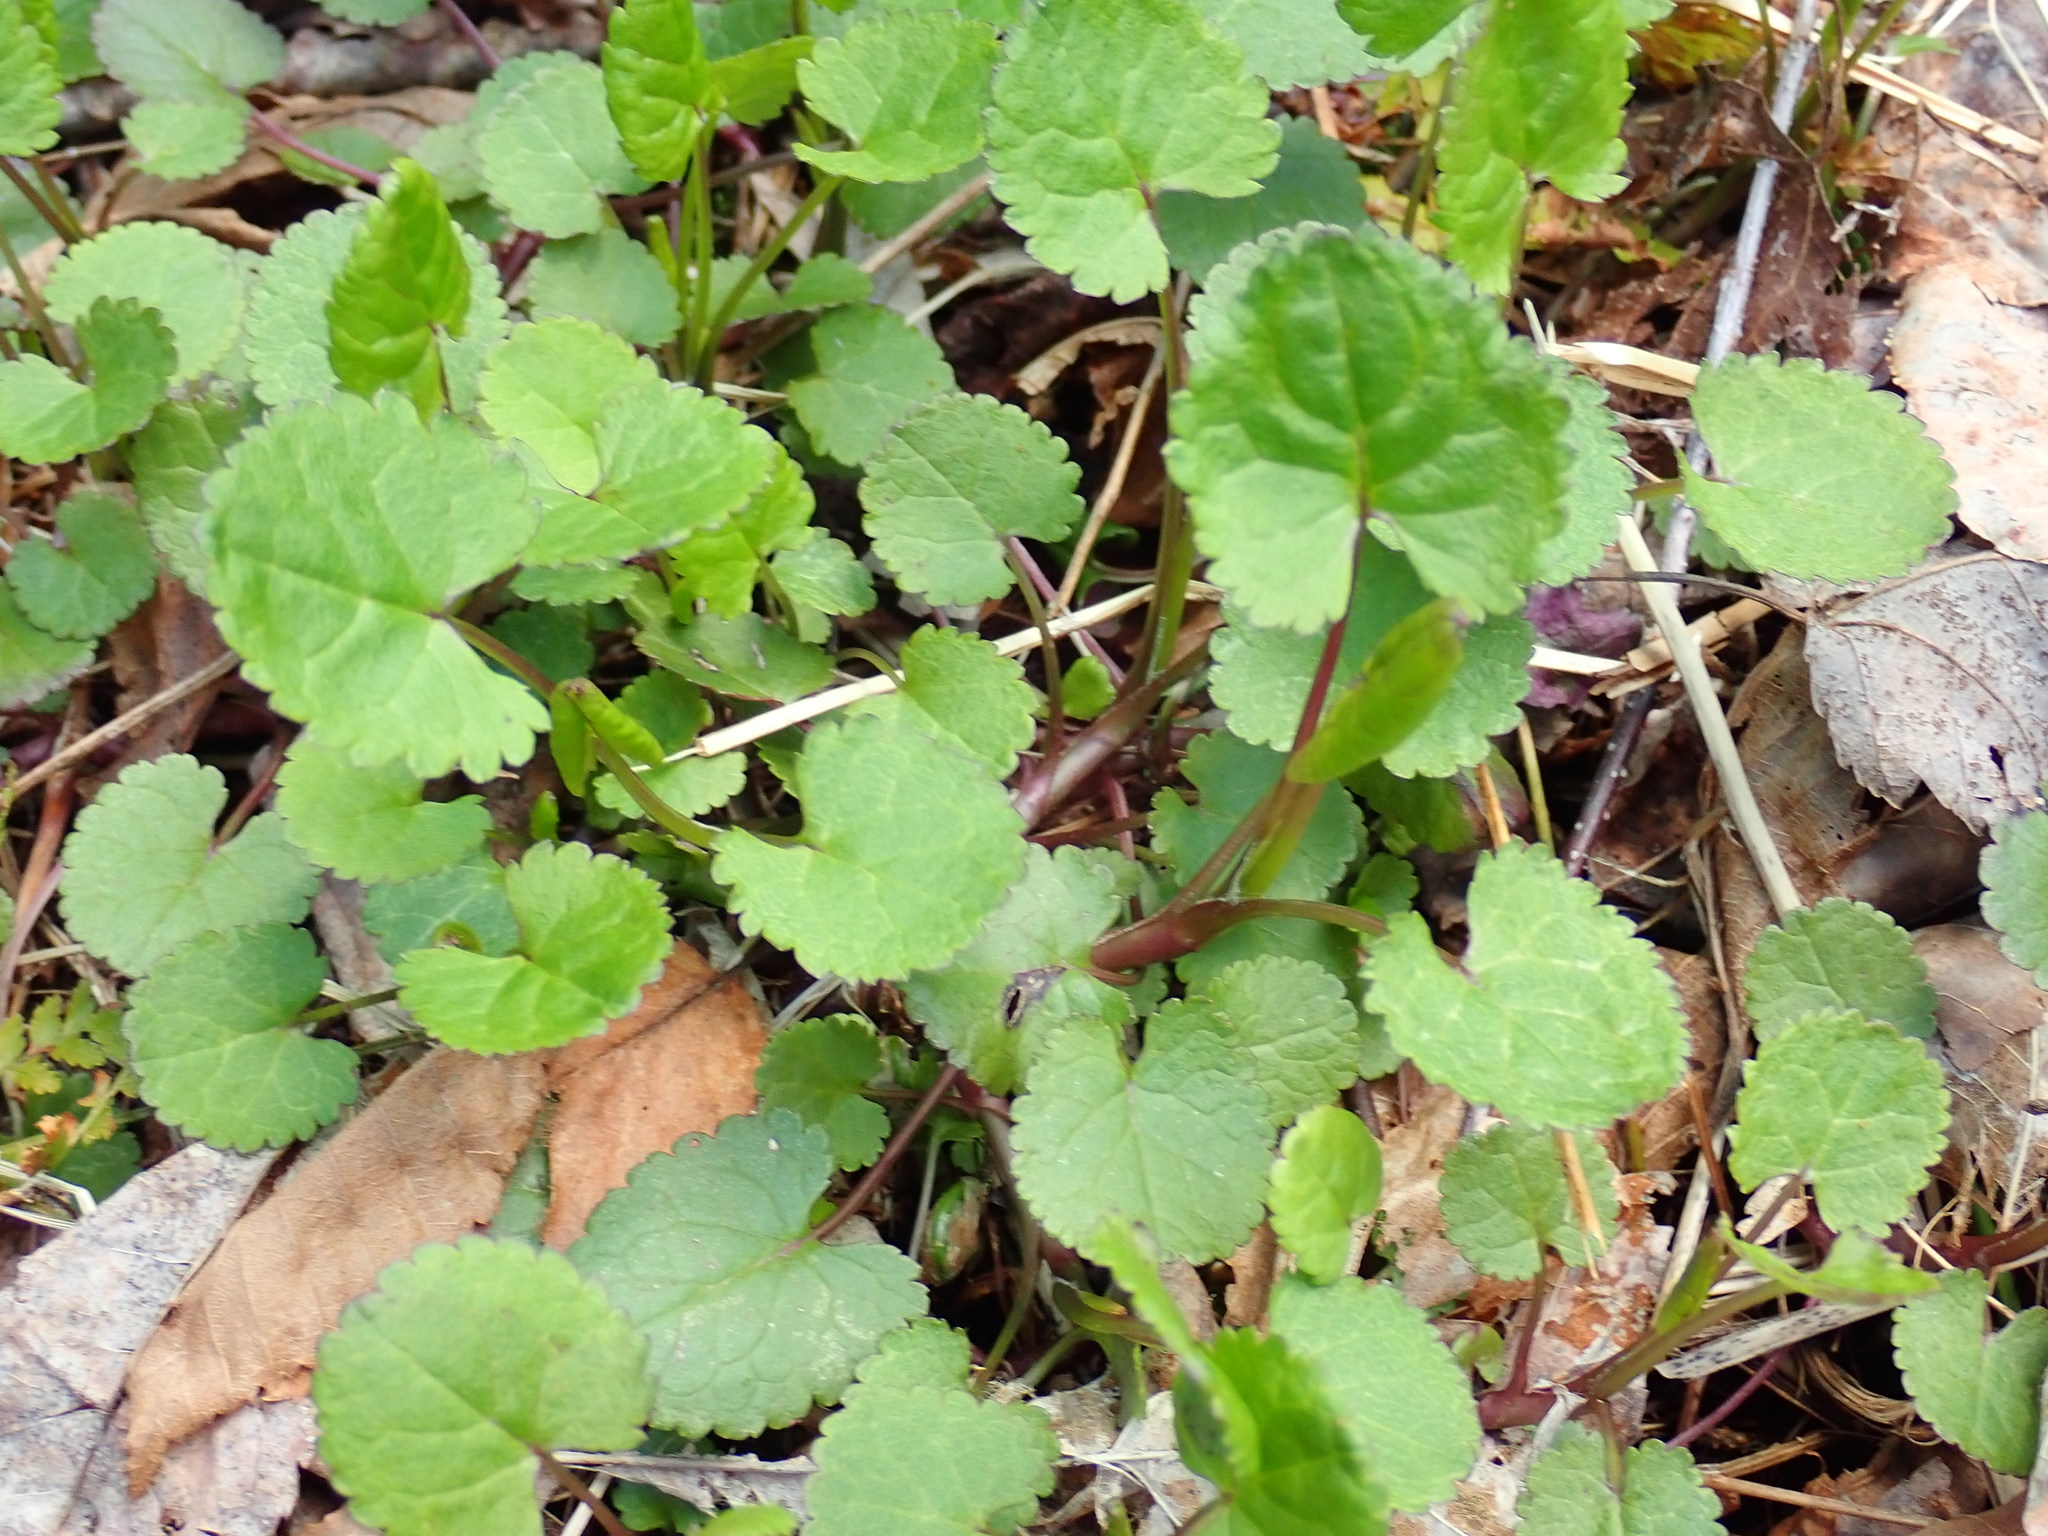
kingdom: Plantae
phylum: Tracheophyta
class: Magnoliopsida
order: Asterales
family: Asteraceae
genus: Packera
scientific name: Packera aurea
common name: Golden groundsel
